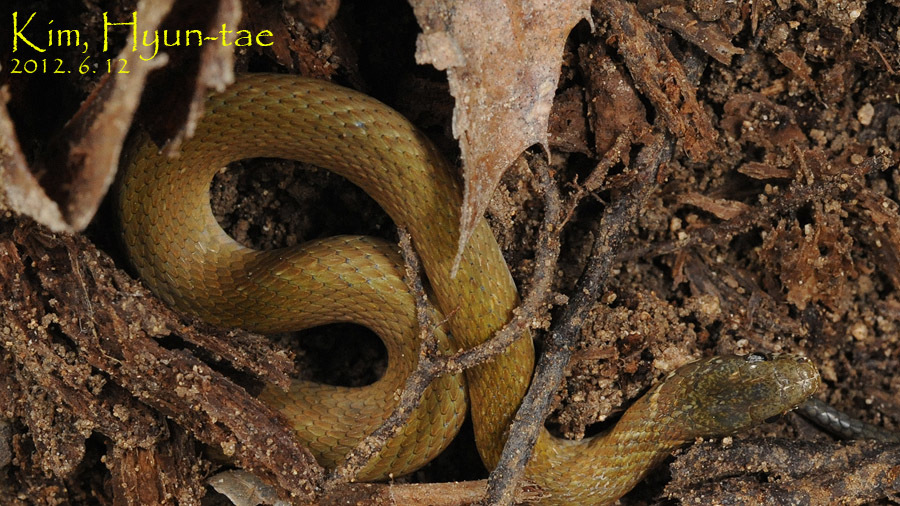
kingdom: Animalia
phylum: Chordata
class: Squamata
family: Colubridae
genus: Hebius
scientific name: Hebius vibakari
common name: Japanese keelback
